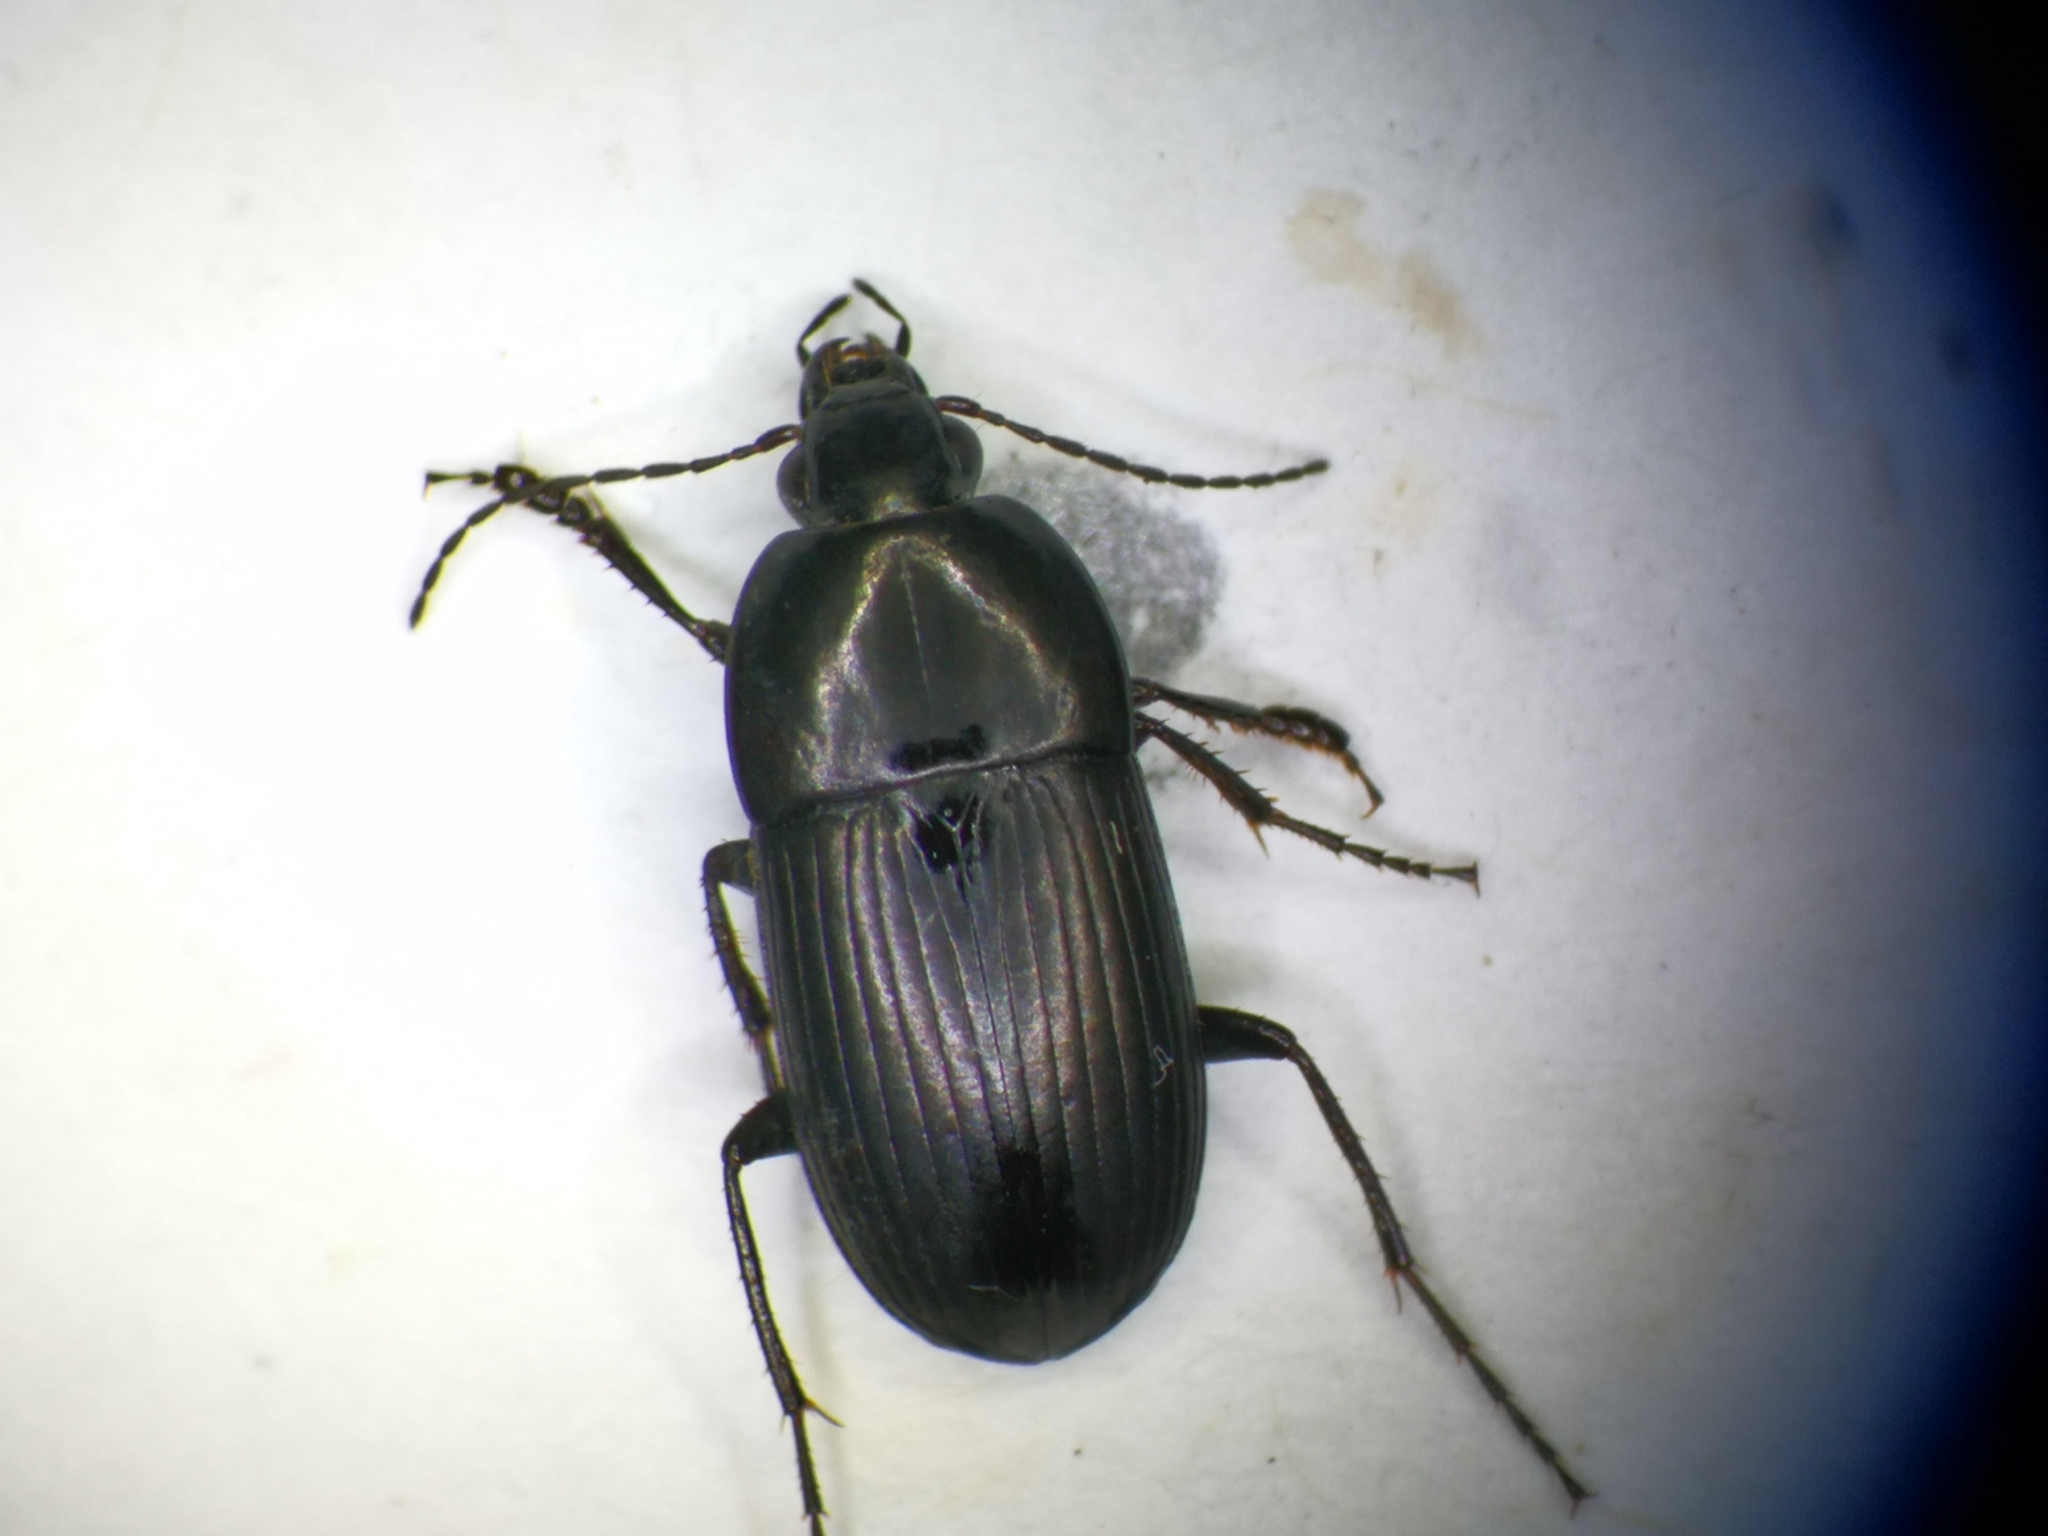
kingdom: Animalia
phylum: Arthropoda
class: Insecta
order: Coleoptera
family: Carabidae
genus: Oodes
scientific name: Oodes helopioides
